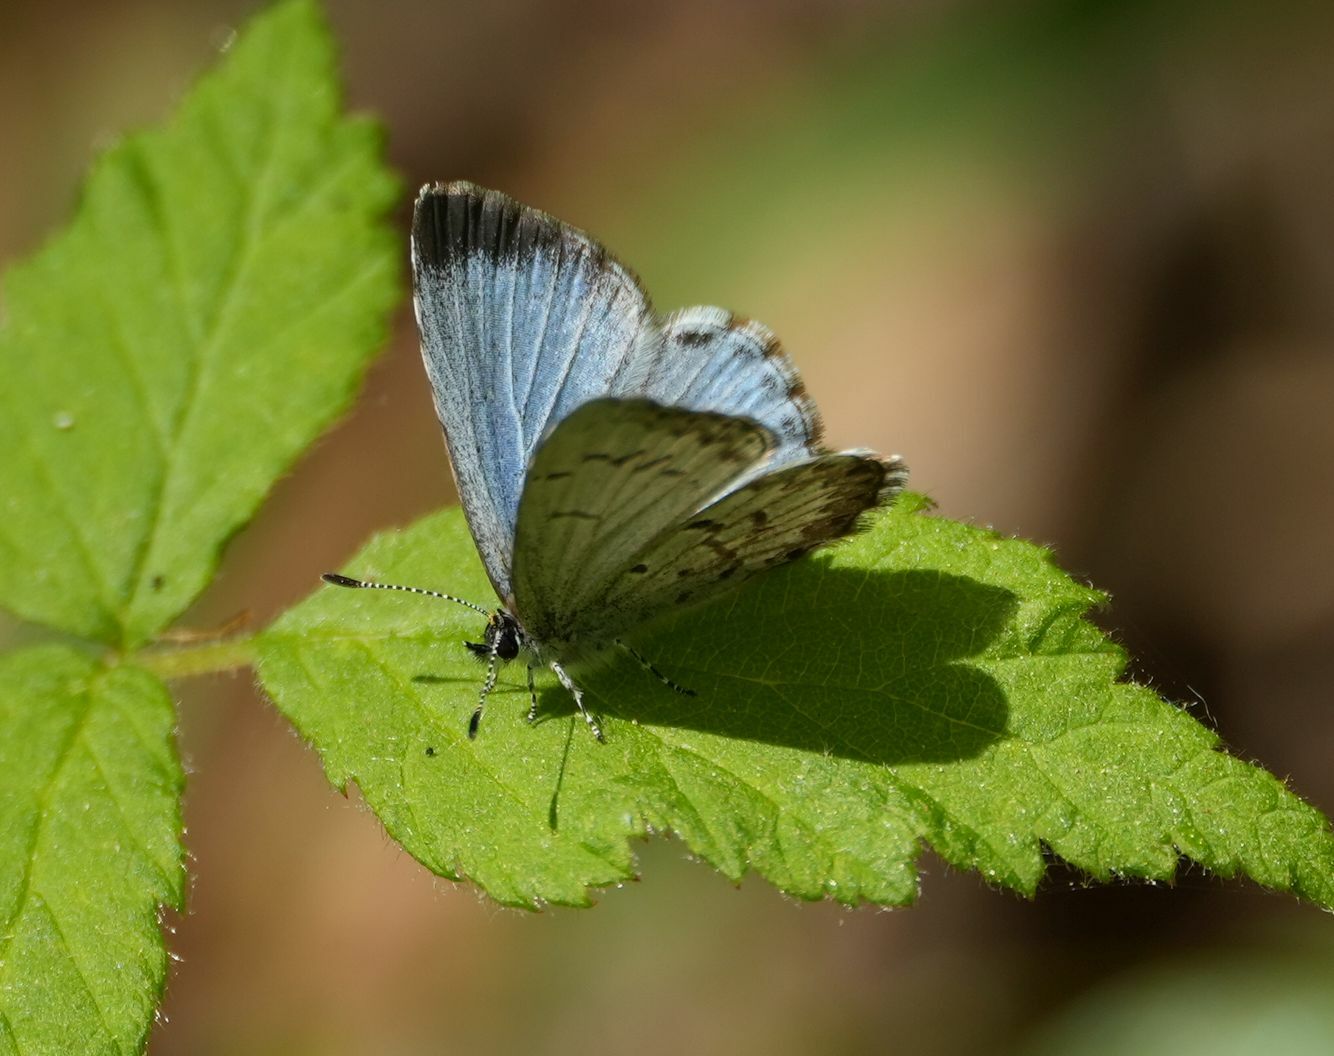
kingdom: Animalia
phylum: Arthropoda
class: Insecta
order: Lepidoptera
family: Lycaenidae
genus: Celastrina
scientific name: Celastrina lucia
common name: Lucia azure
